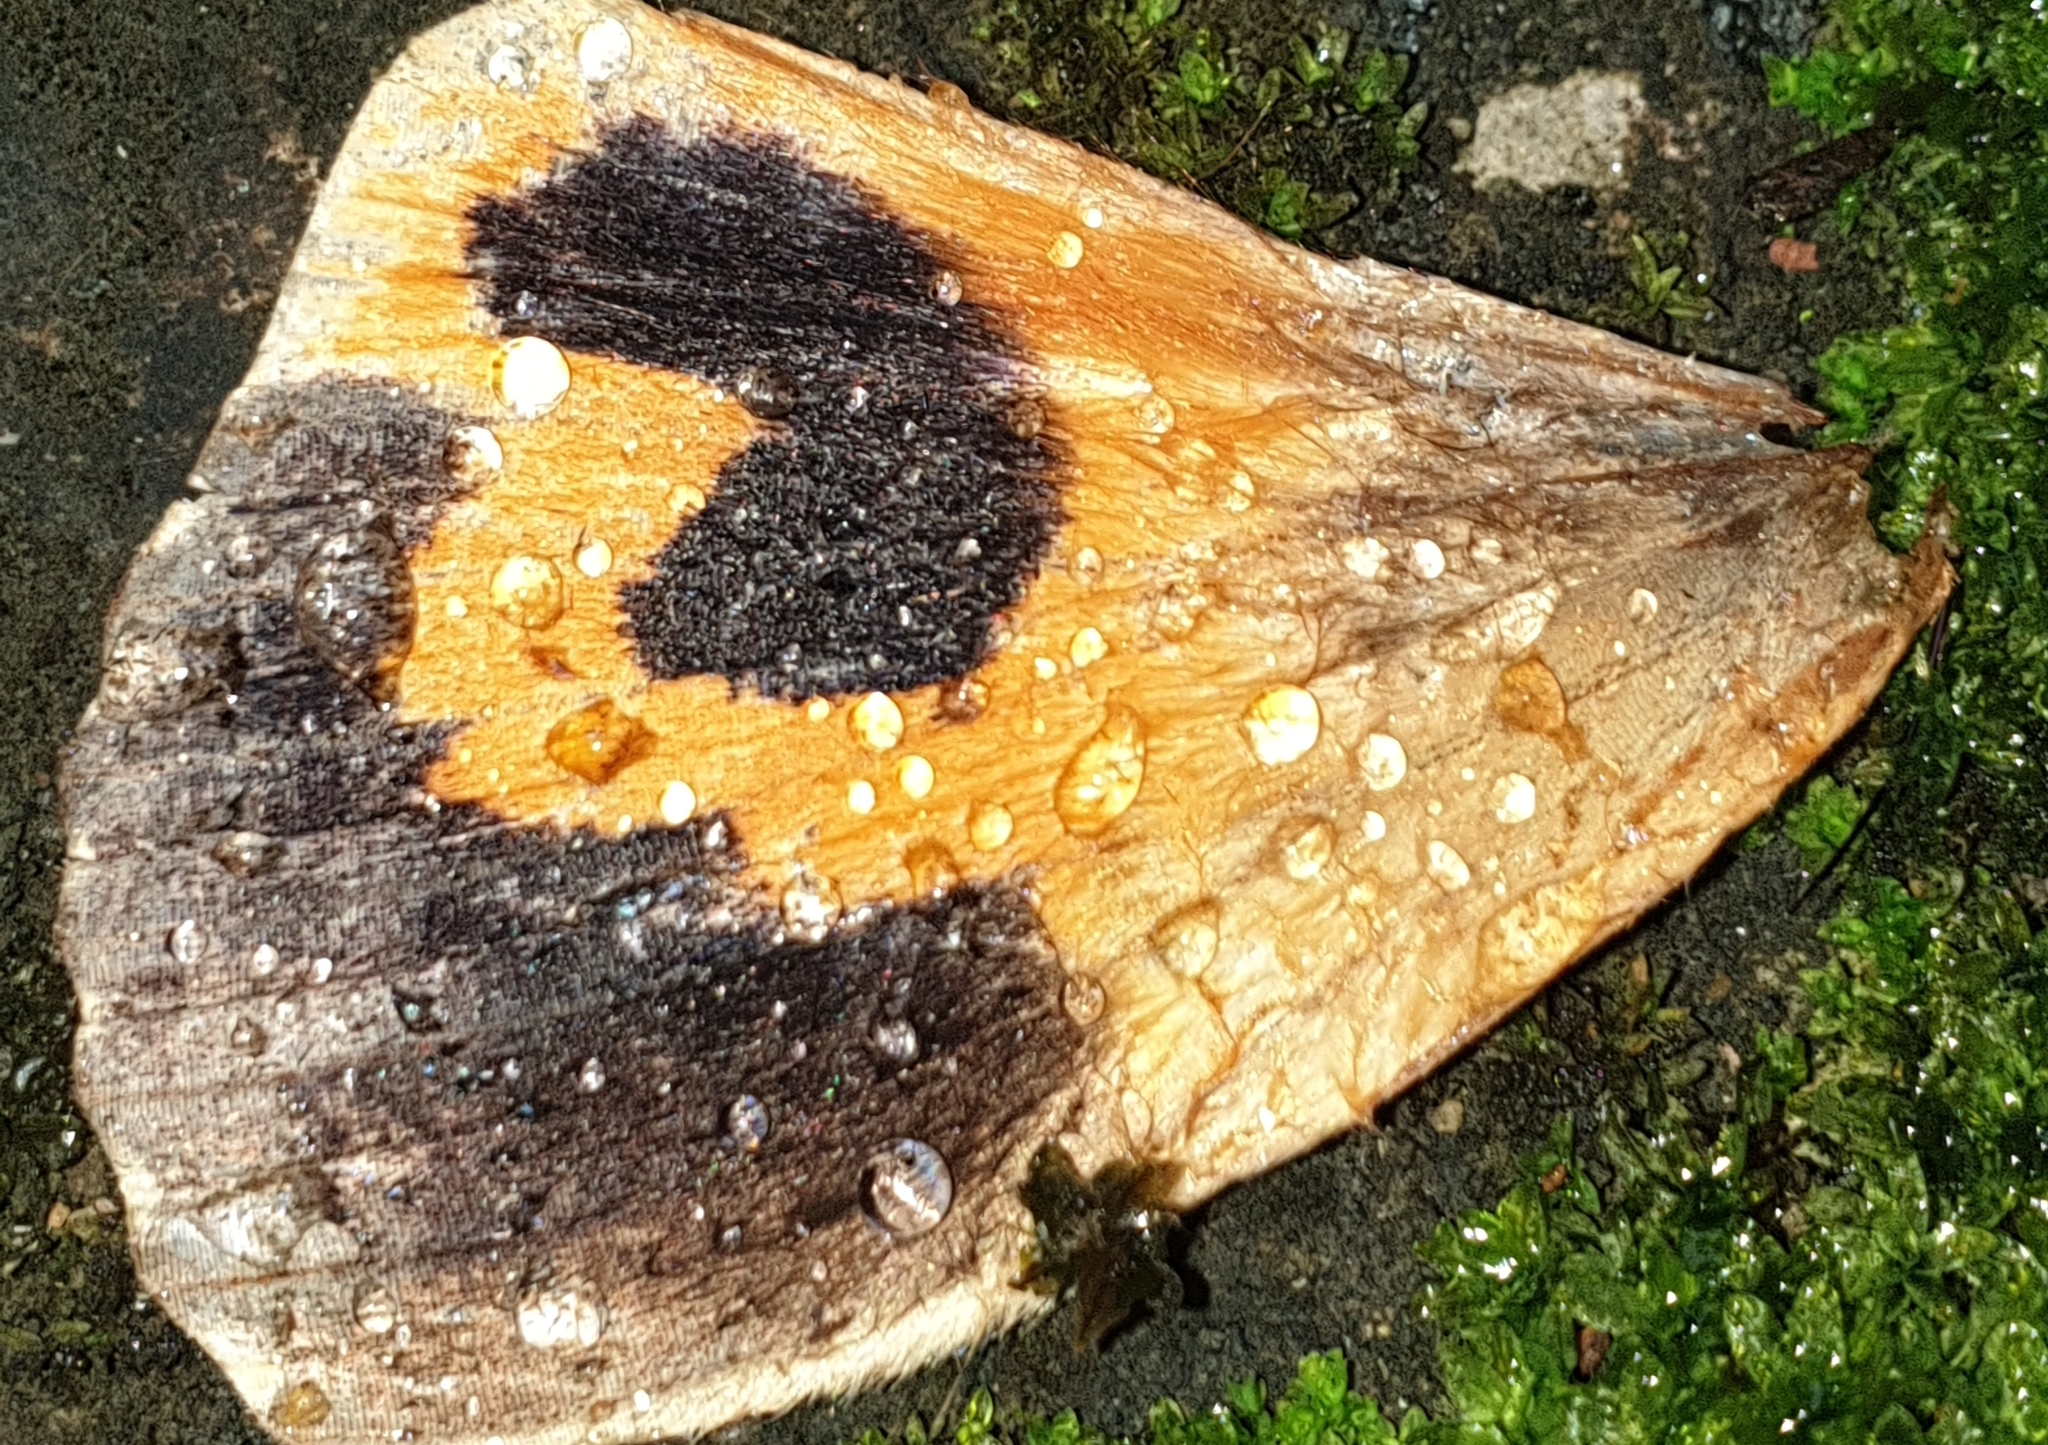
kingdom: Animalia
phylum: Arthropoda
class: Insecta
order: Lepidoptera
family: Erebidae
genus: Eudocima
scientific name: Eudocima phalonia
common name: Wasp
